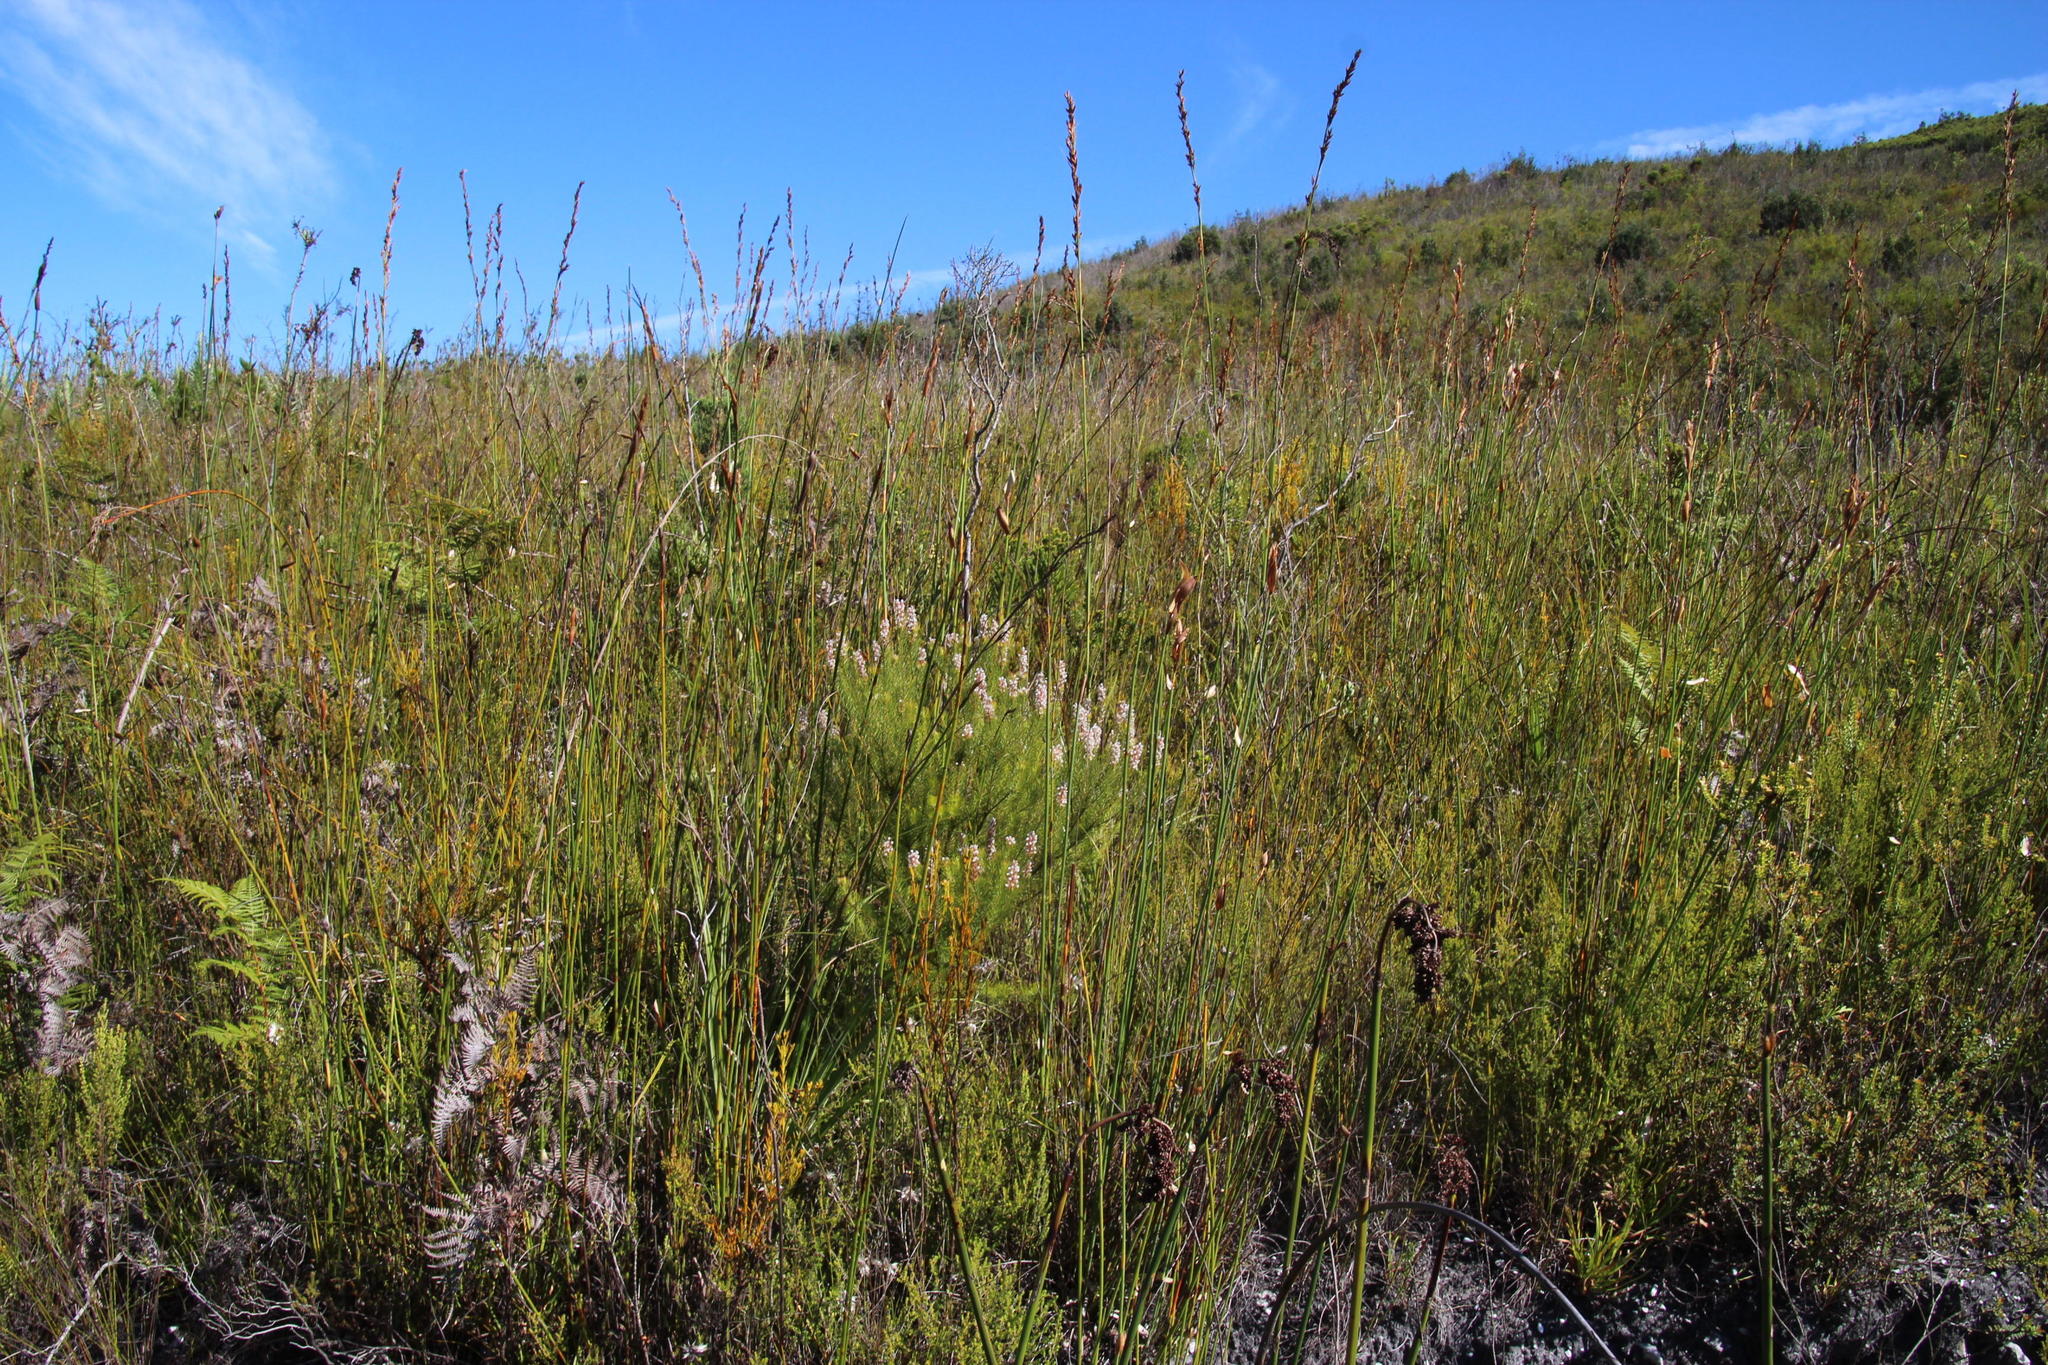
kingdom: Plantae
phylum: Tracheophyta
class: Magnoliopsida
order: Proteales
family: Proteaceae
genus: Spatalla
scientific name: Spatalla parilis
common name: Spike spoon
